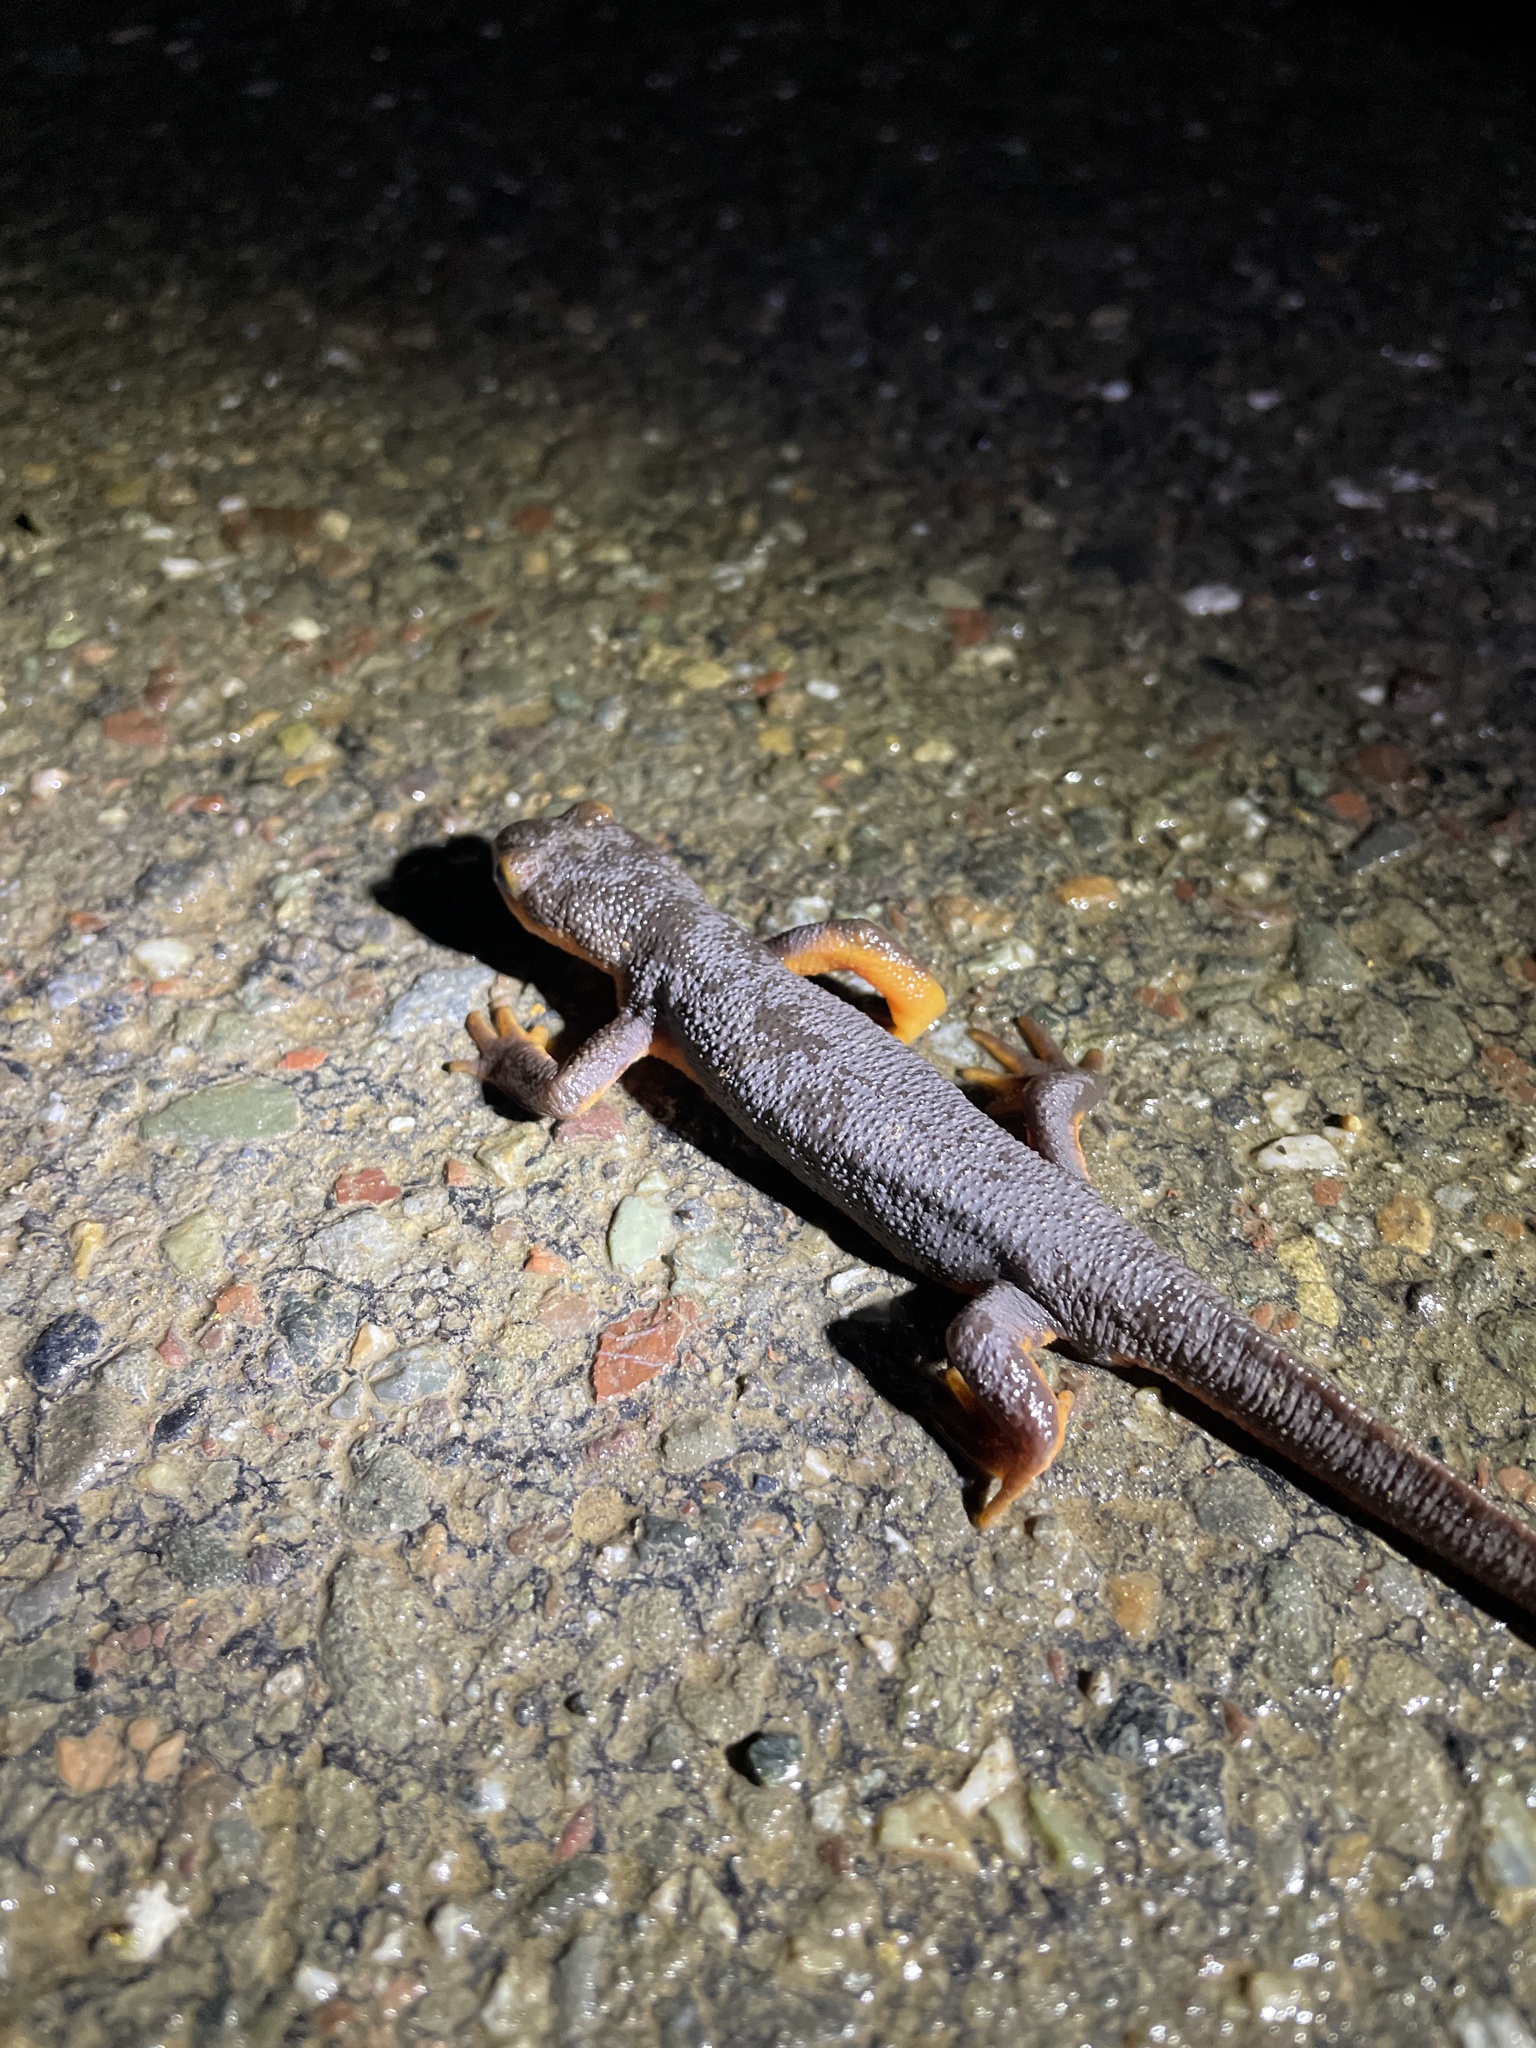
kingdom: Animalia
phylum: Chordata
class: Amphibia
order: Caudata
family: Salamandridae
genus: Taricha
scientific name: Taricha torosa
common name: California newt
